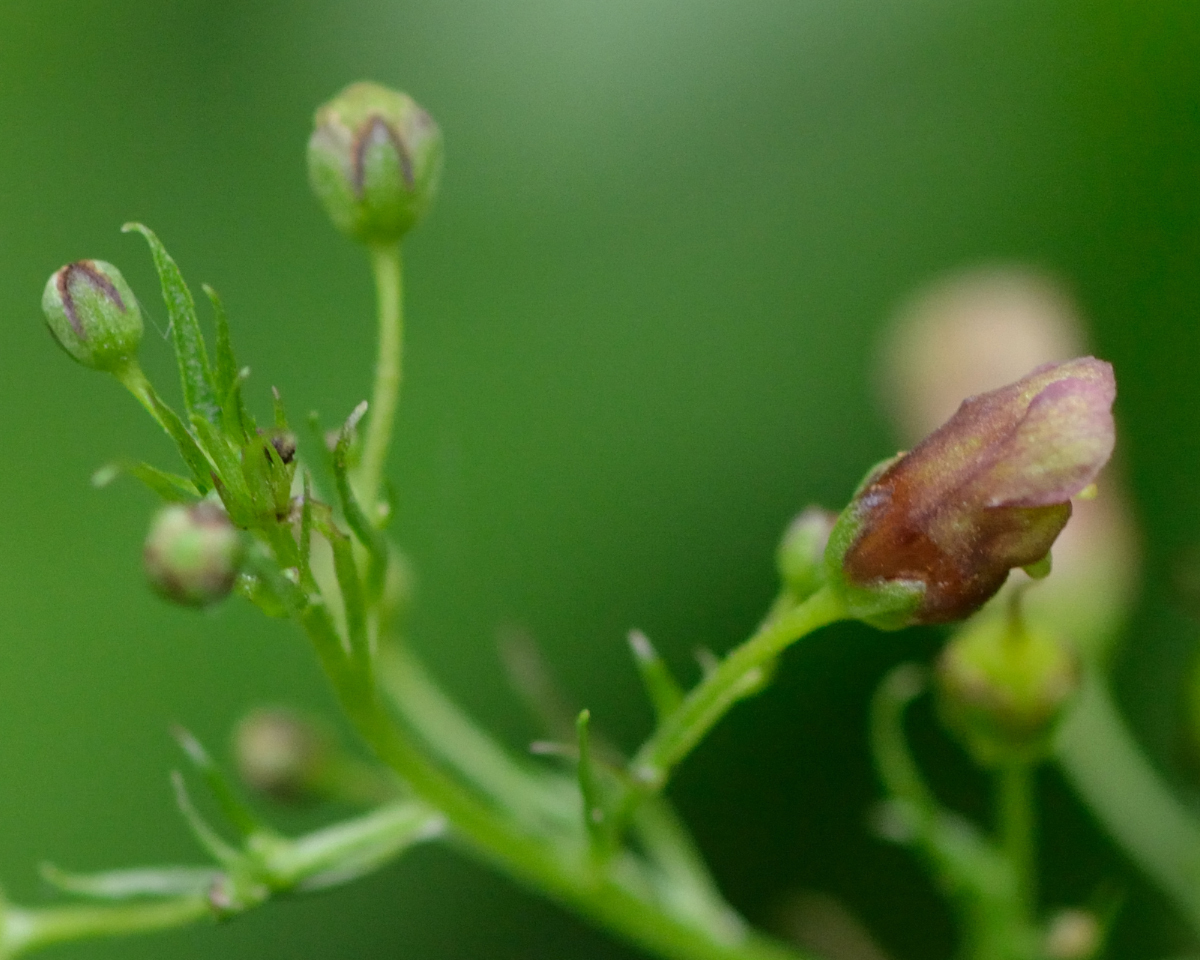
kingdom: Plantae
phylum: Tracheophyta
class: Magnoliopsida
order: Lamiales
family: Scrophulariaceae
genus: Scrophularia
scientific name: Scrophularia umbrosa
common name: Green figwort
